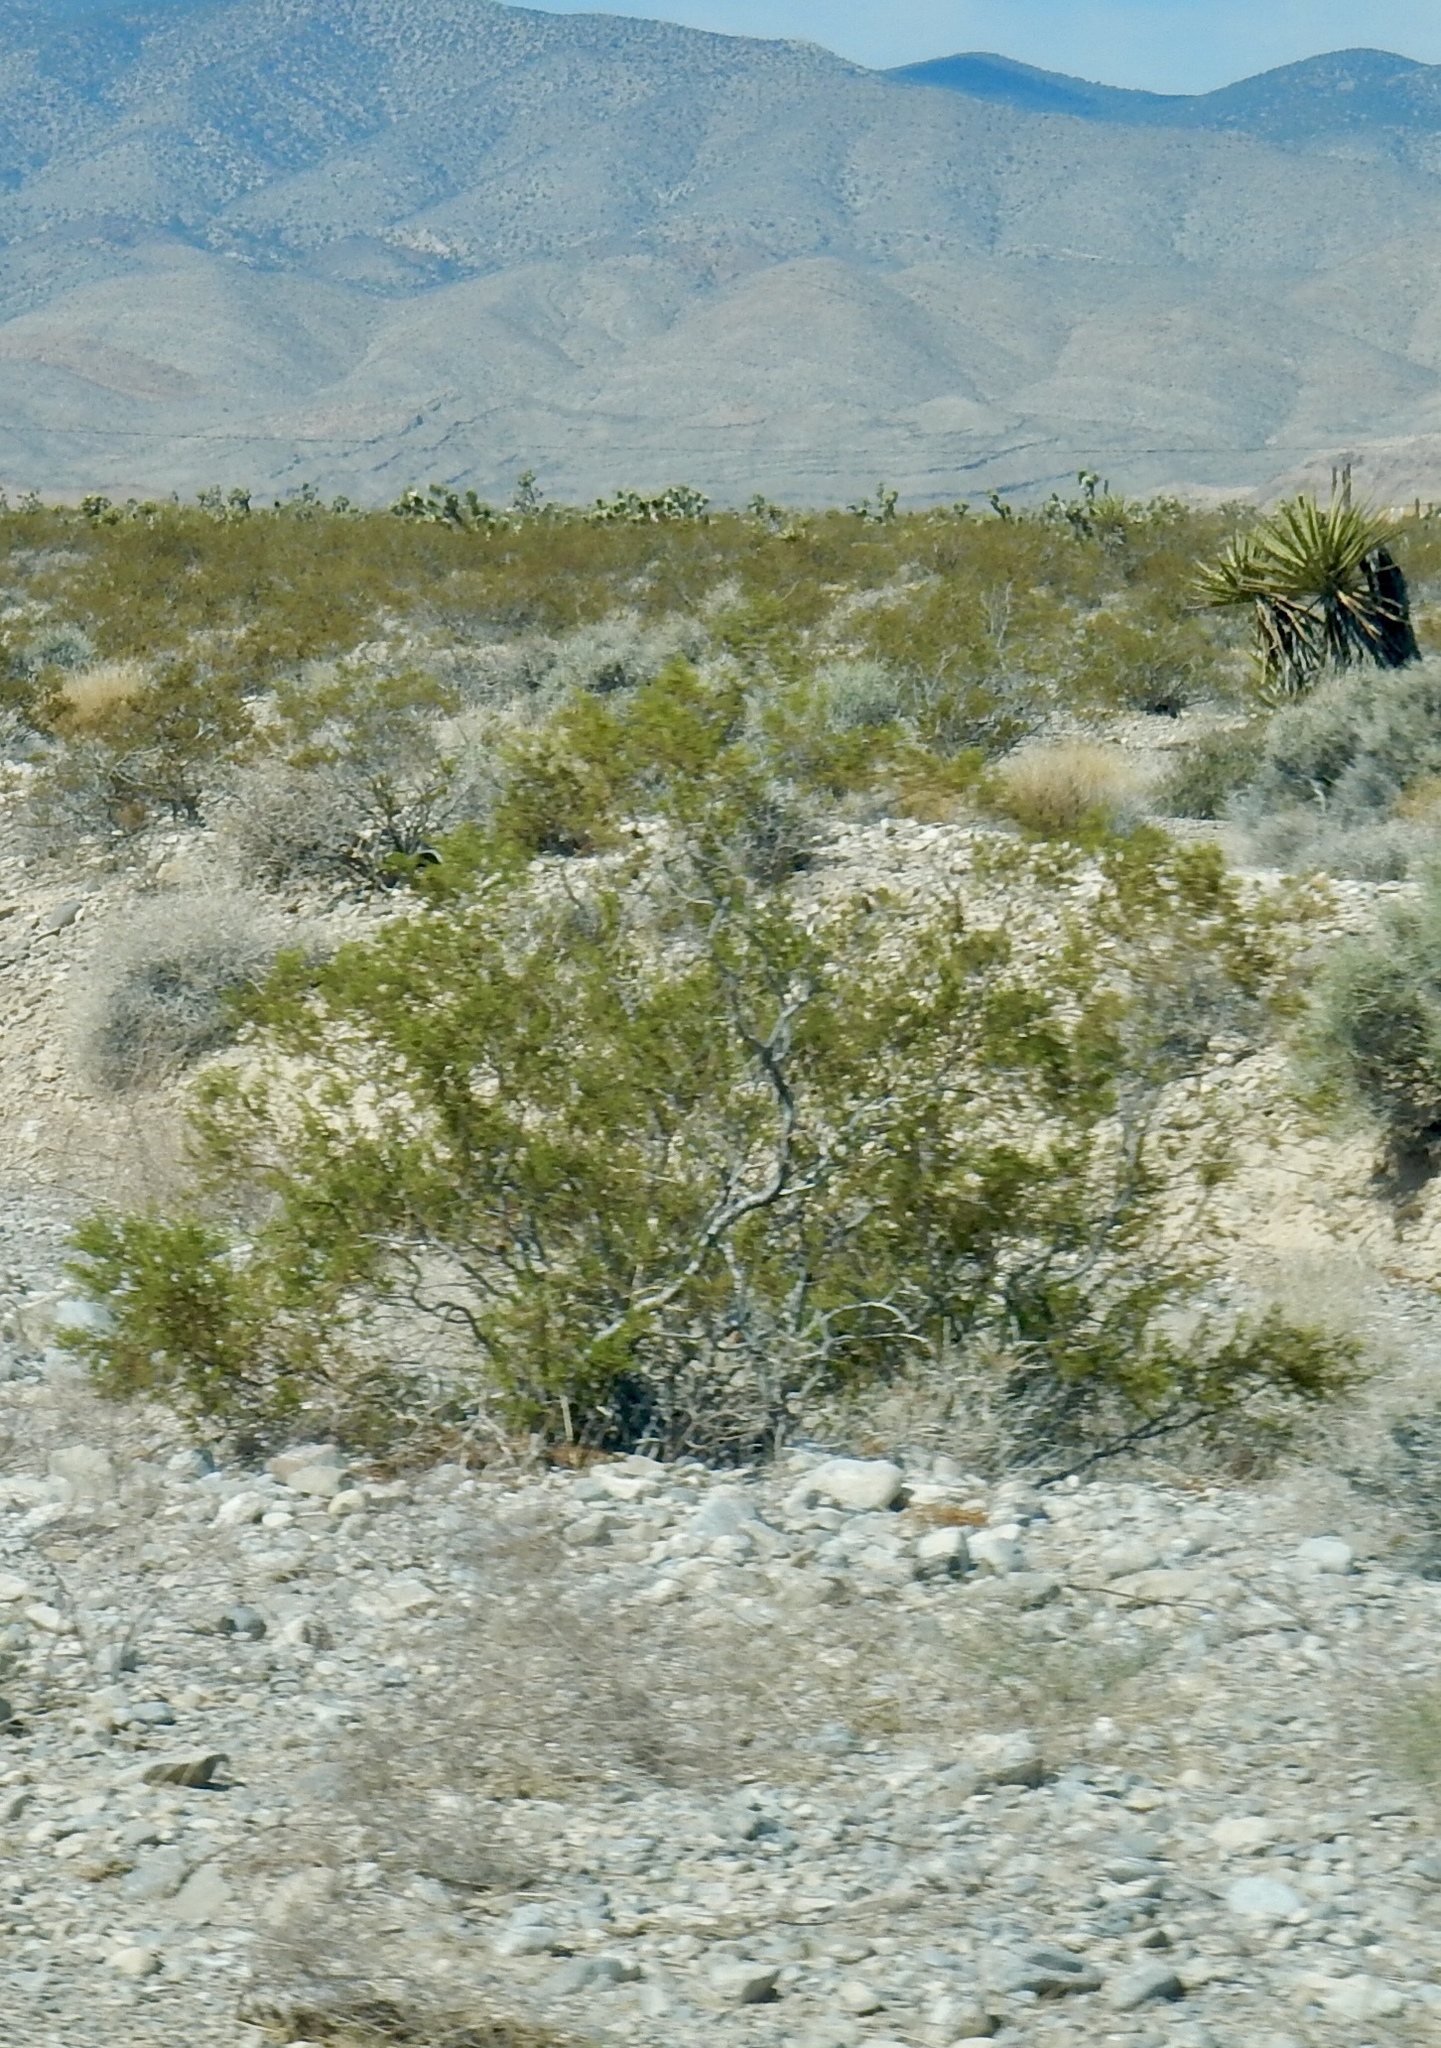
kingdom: Plantae
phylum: Tracheophyta
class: Magnoliopsida
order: Zygophyllales
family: Zygophyllaceae
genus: Larrea
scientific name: Larrea tridentata
